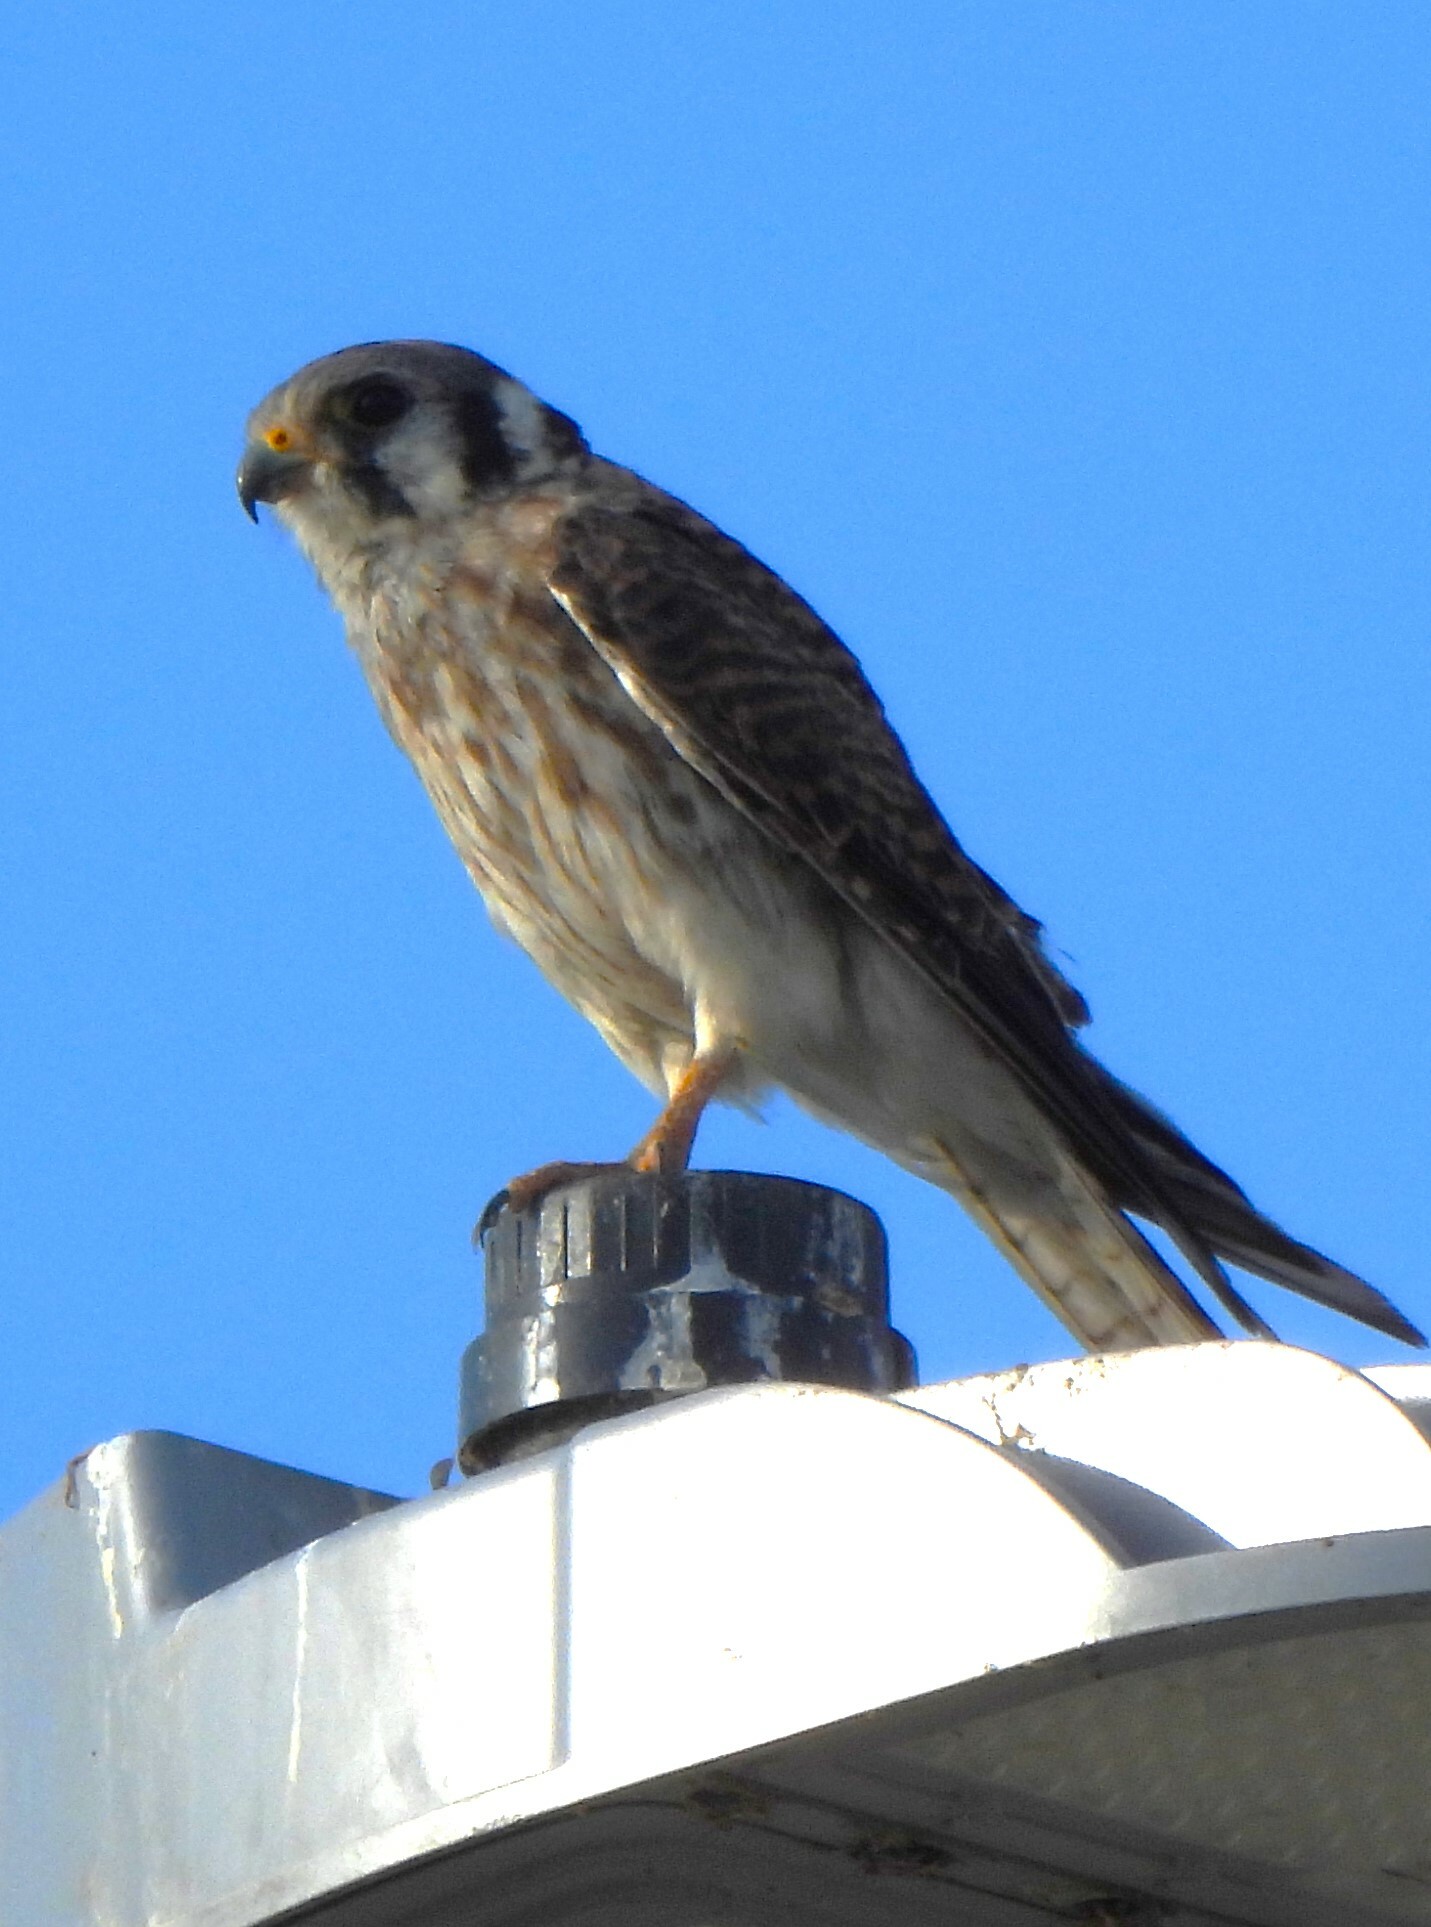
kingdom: Animalia
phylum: Chordata
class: Aves
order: Falconiformes
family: Falconidae
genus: Falco
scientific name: Falco sparverius
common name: American kestrel
